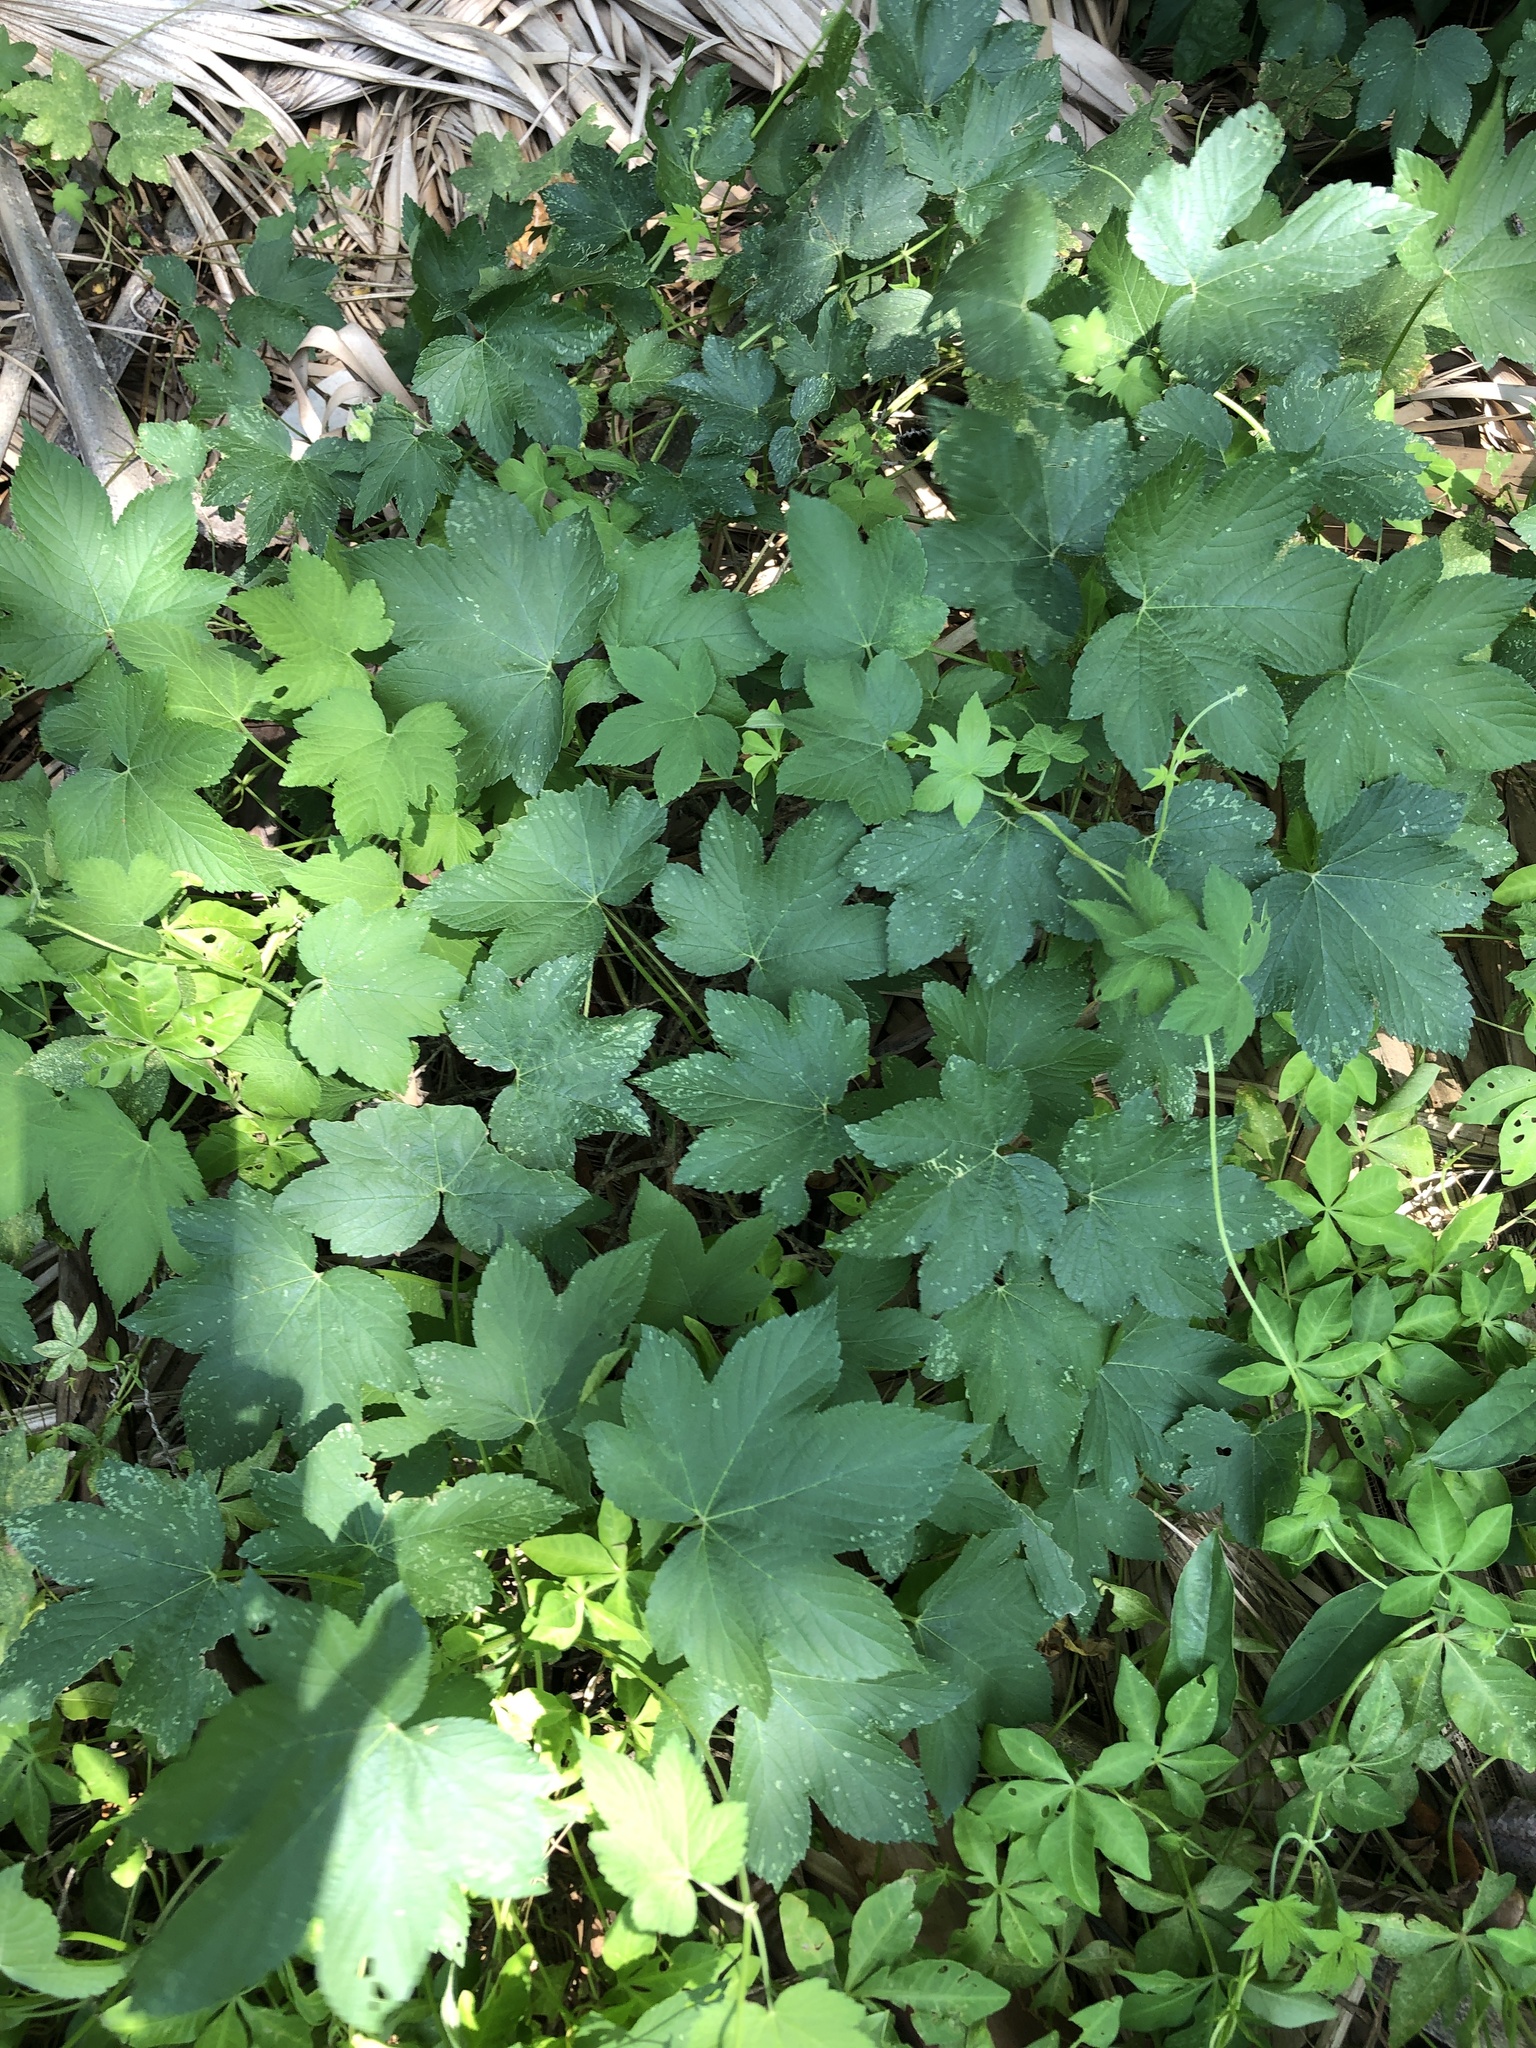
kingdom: Plantae
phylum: Tracheophyta
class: Magnoliopsida
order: Rosales
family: Cannabaceae
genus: Humulus
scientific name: Humulus scandens
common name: Japanese hop
